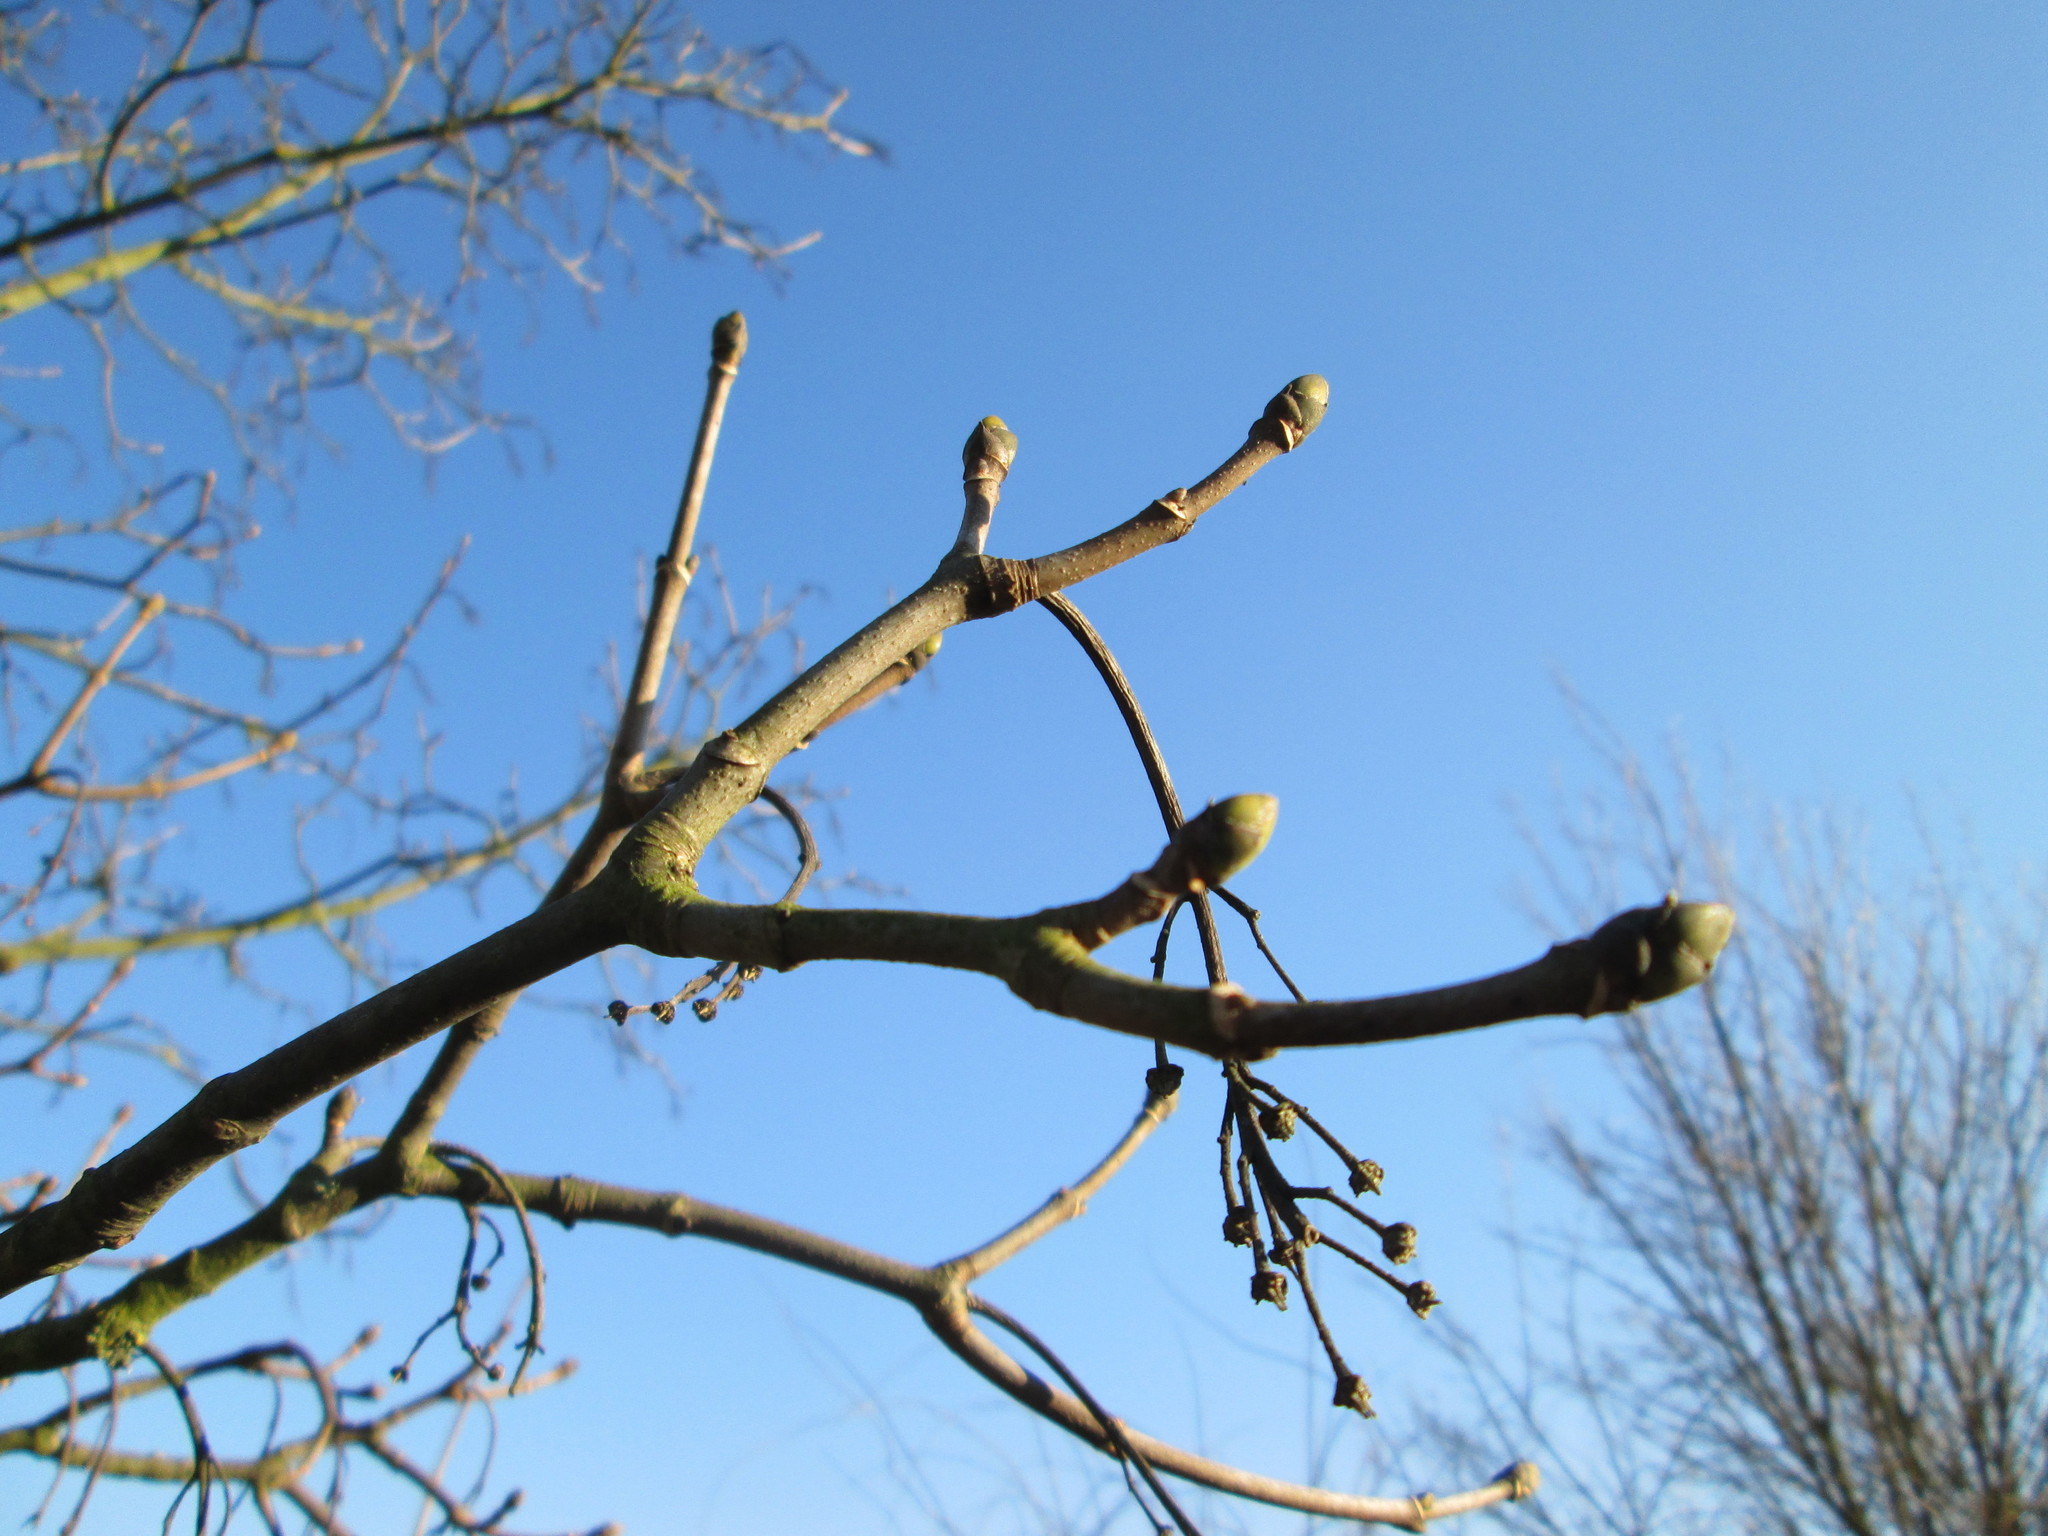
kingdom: Plantae
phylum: Tracheophyta
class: Magnoliopsida
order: Sapindales
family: Sapindaceae
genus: Acer
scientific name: Acer pseudoplatanus
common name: Sycamore
